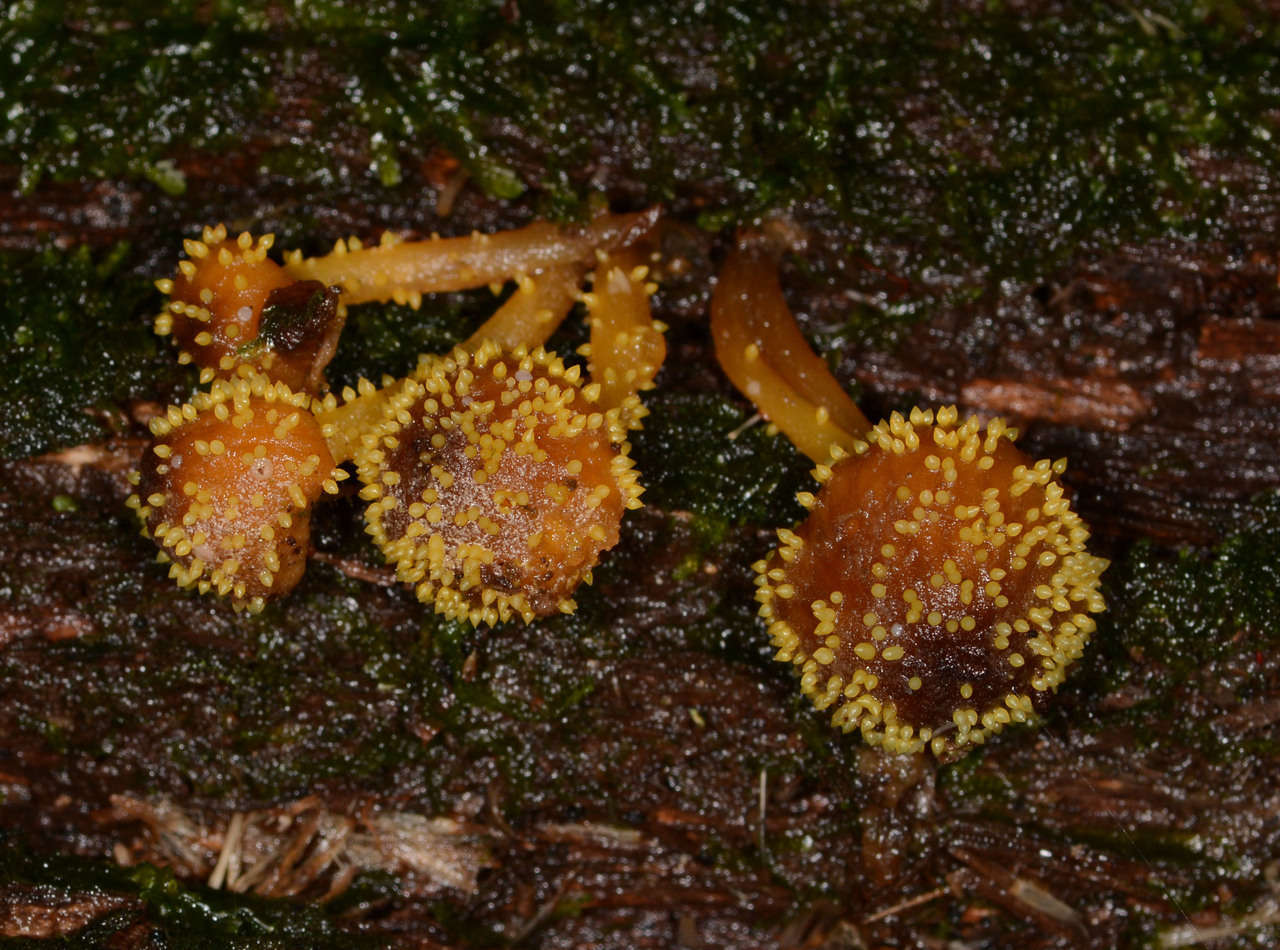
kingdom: Fungi
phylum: Ascomycota
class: Sordariomycetes
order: Hypocreales
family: Clavicipitaceae
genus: Neobarya
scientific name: Neobarya agaricicola
